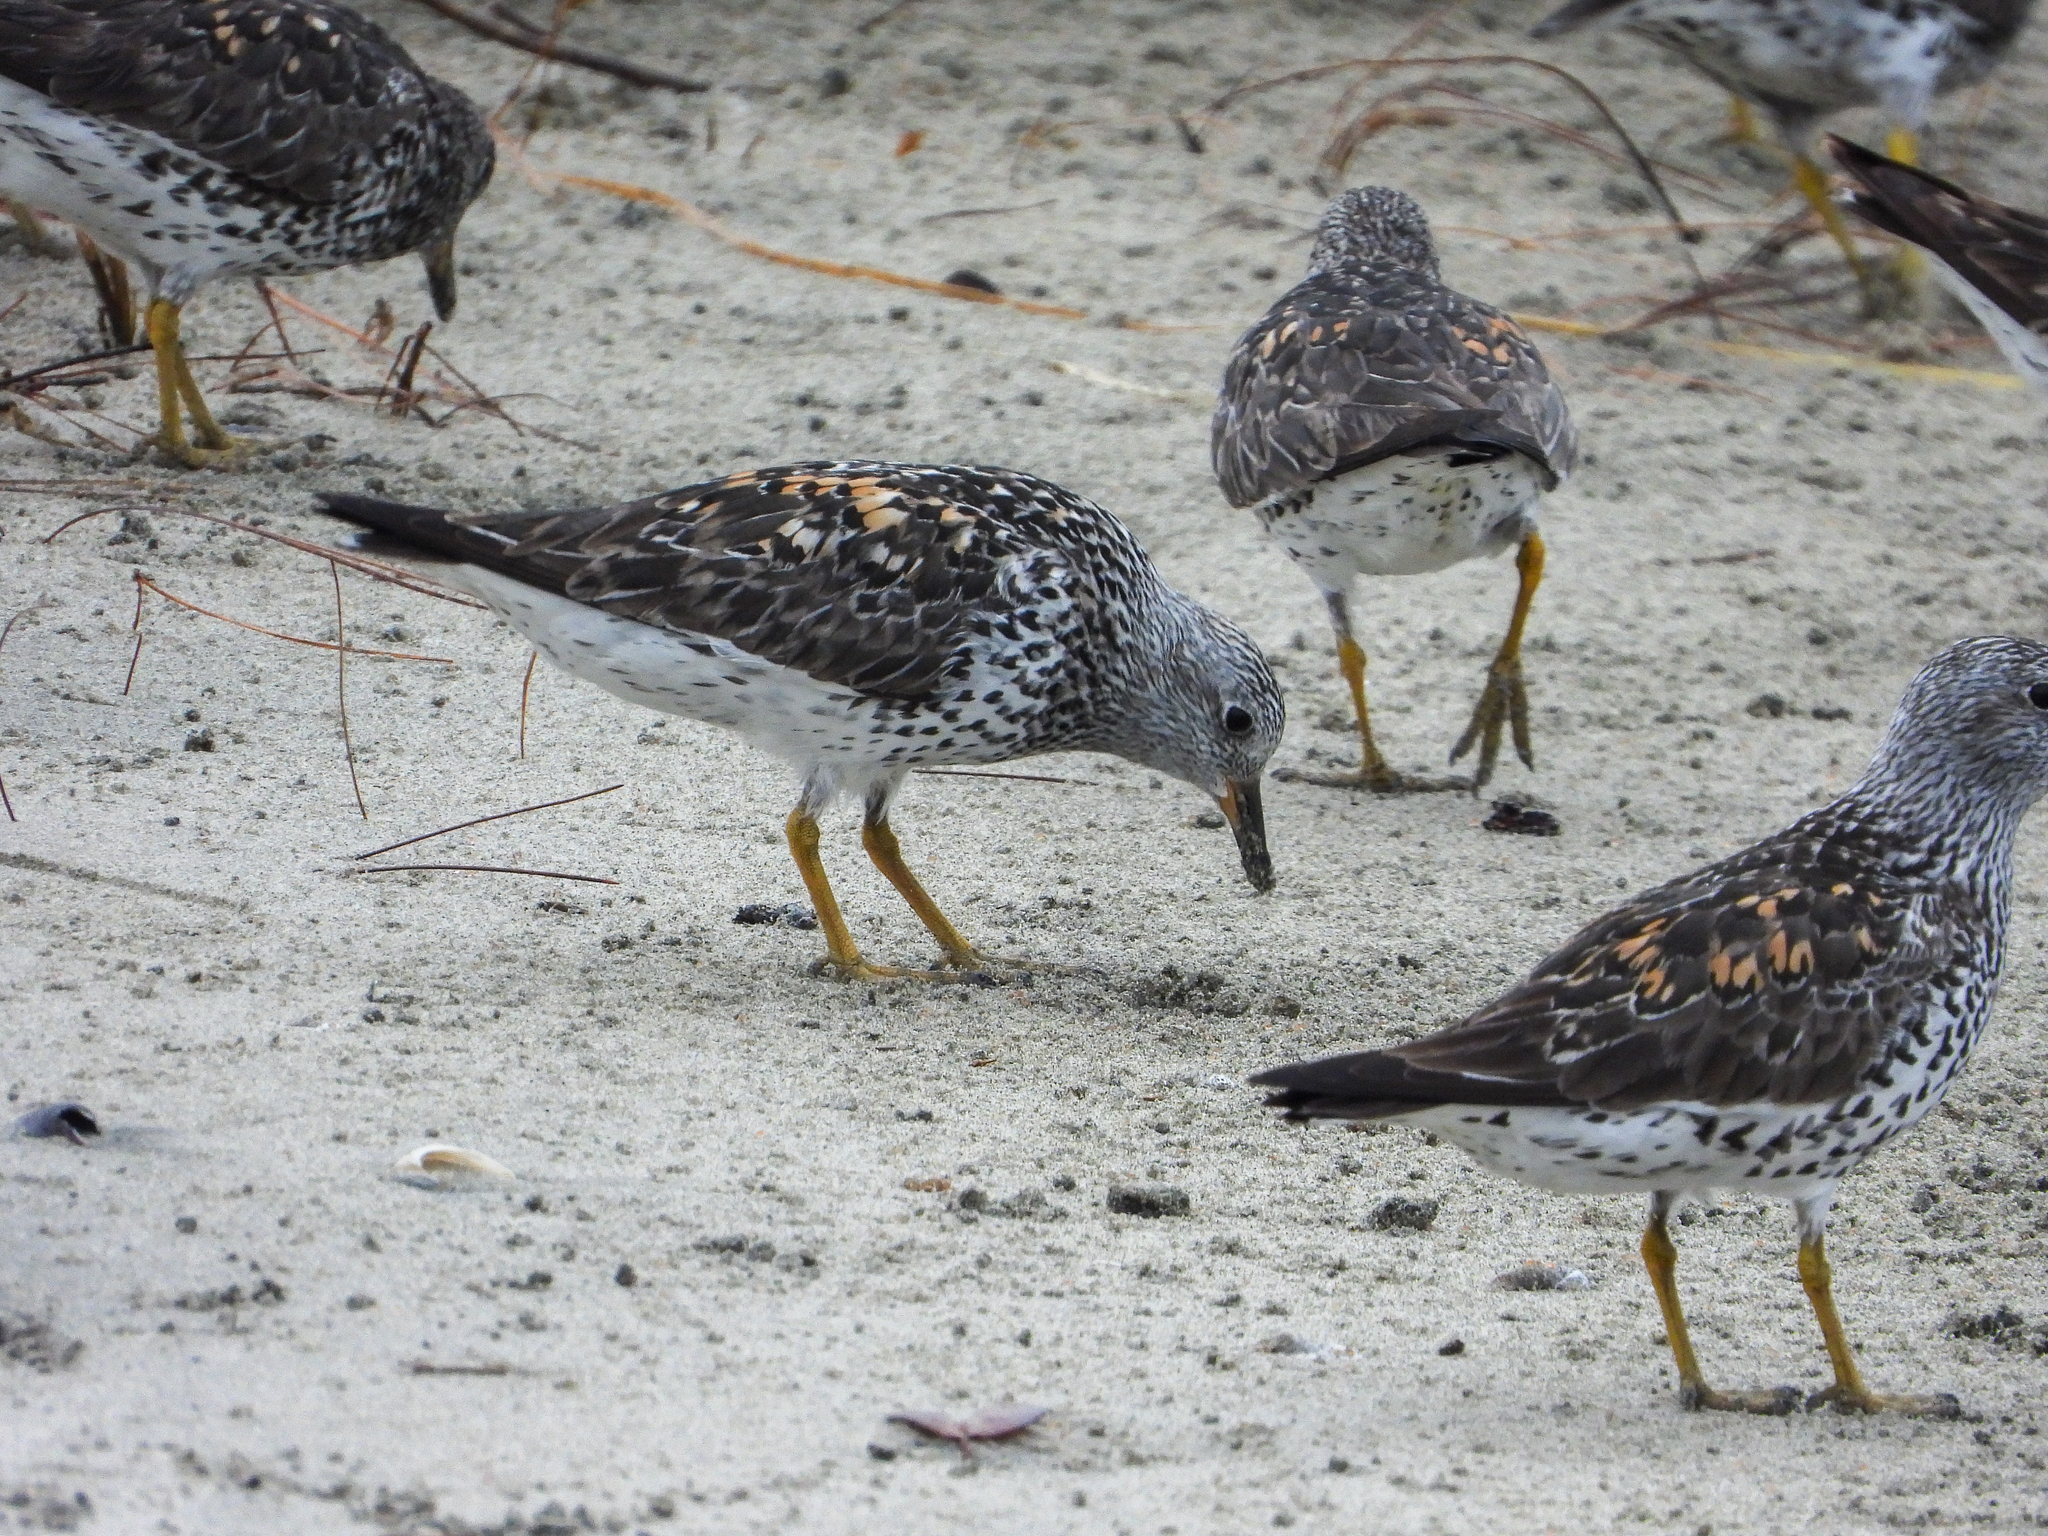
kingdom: Animalia
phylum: Chordata
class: Aves
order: Charadriiformes
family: Scolopacidae
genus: Calidris
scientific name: Calidris virgata
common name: Surfbird
